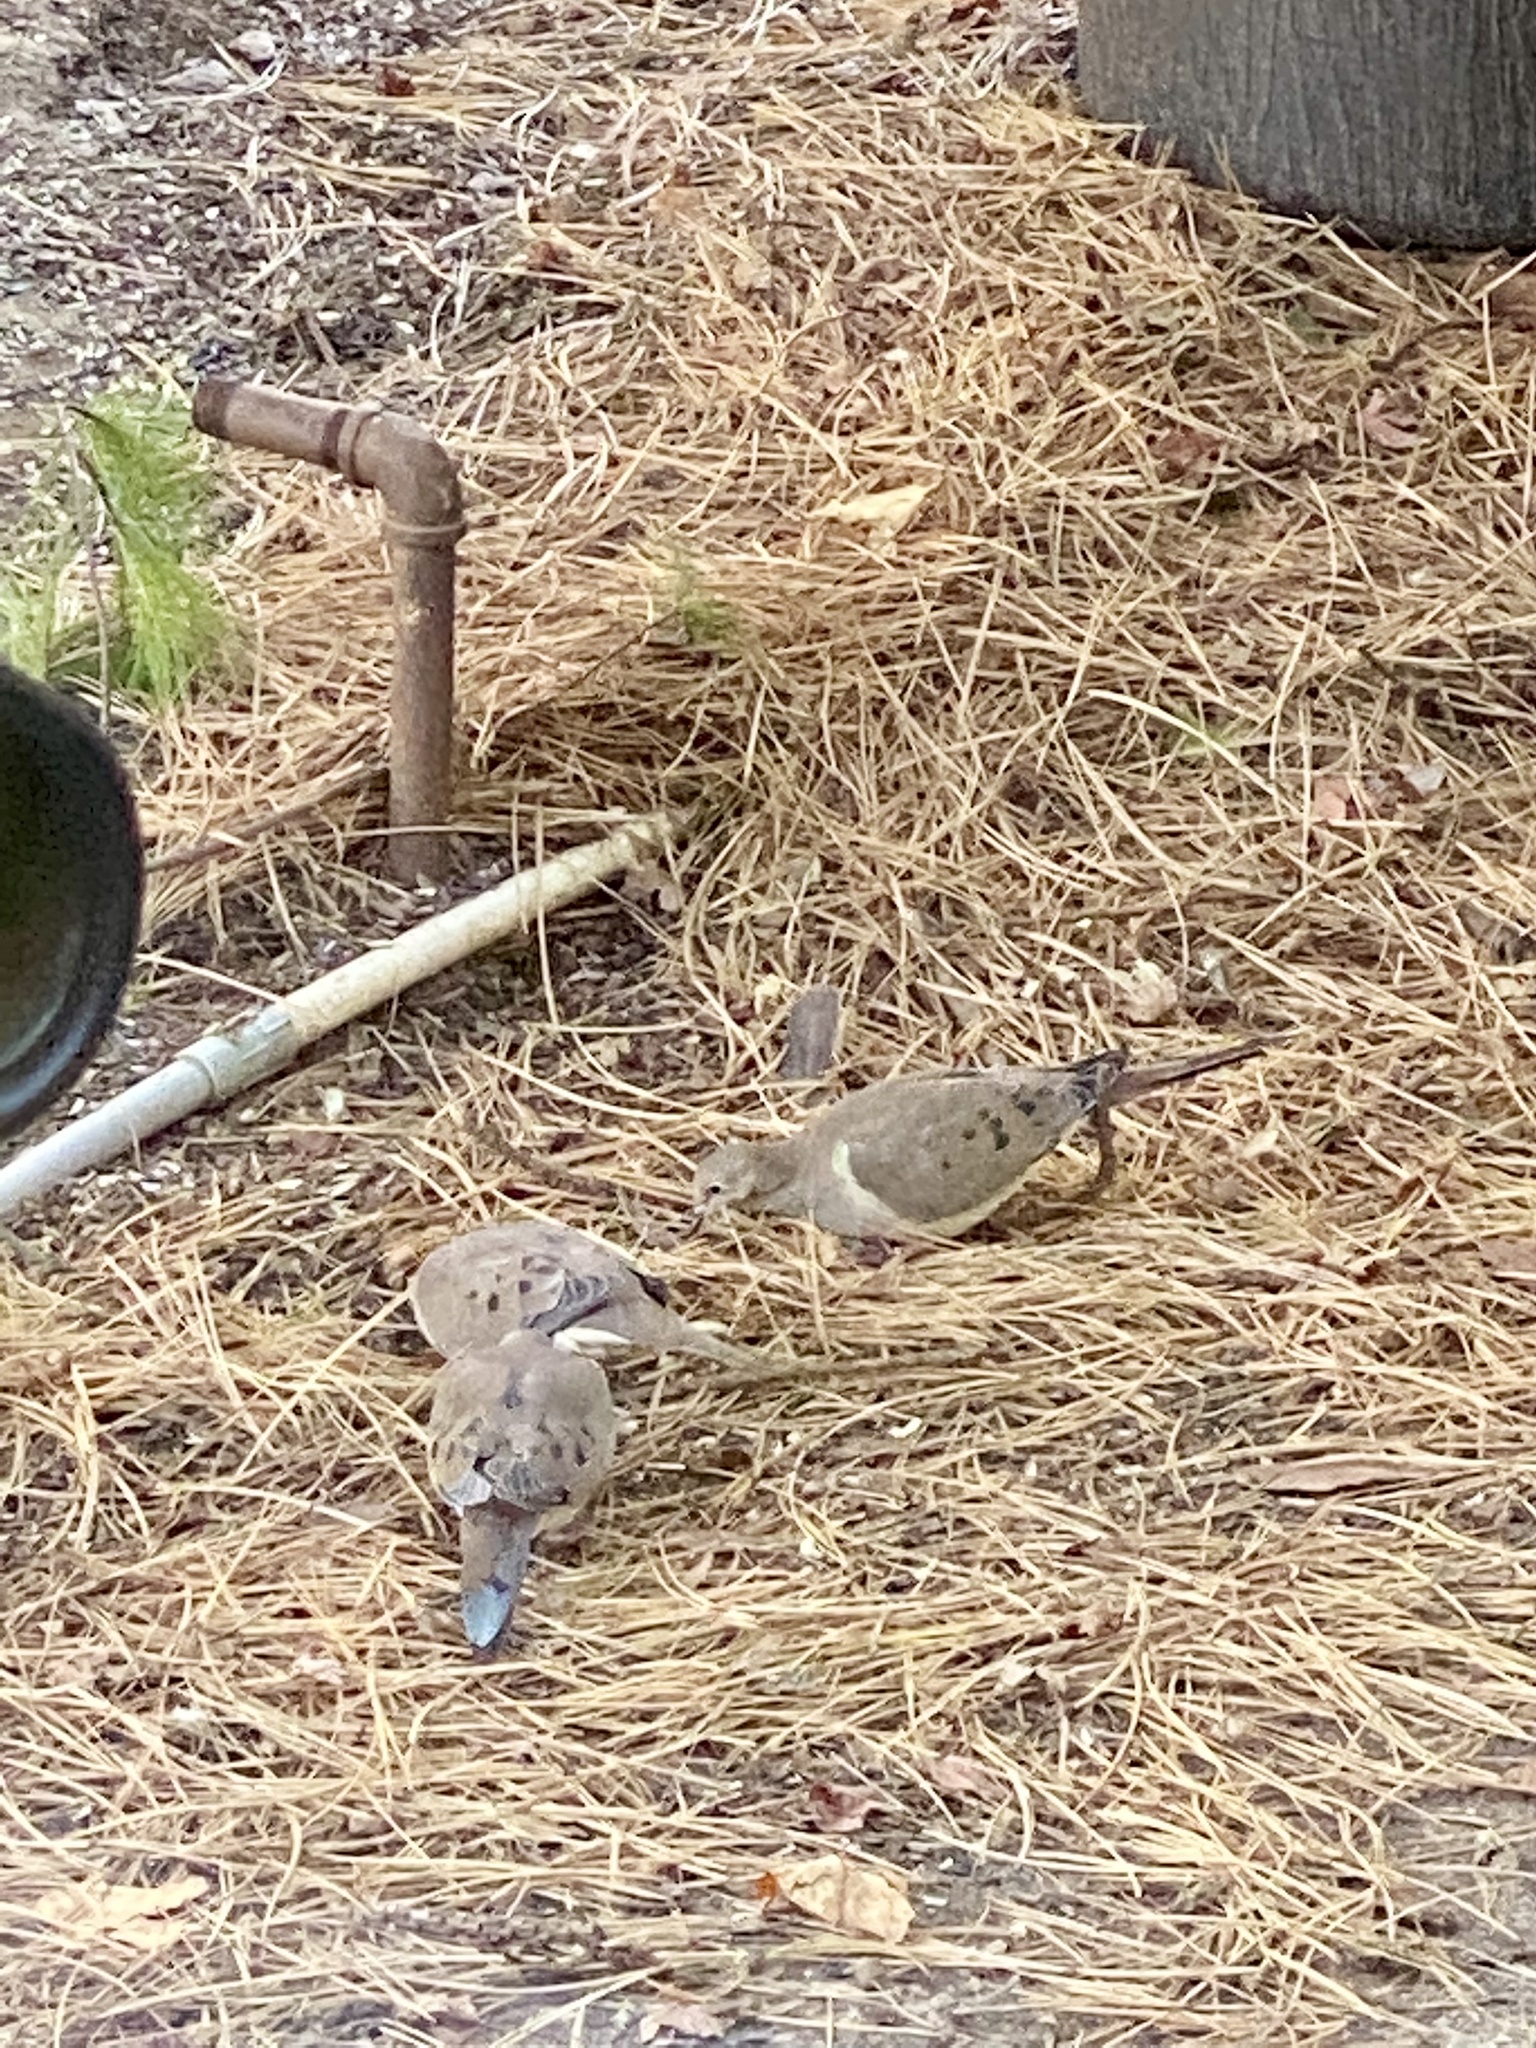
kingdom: Animalia
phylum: Chordata
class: Aves
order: Columbiformes
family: Columbidae
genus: Zenaida
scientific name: Zenaida macroura
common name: Mourning dove
